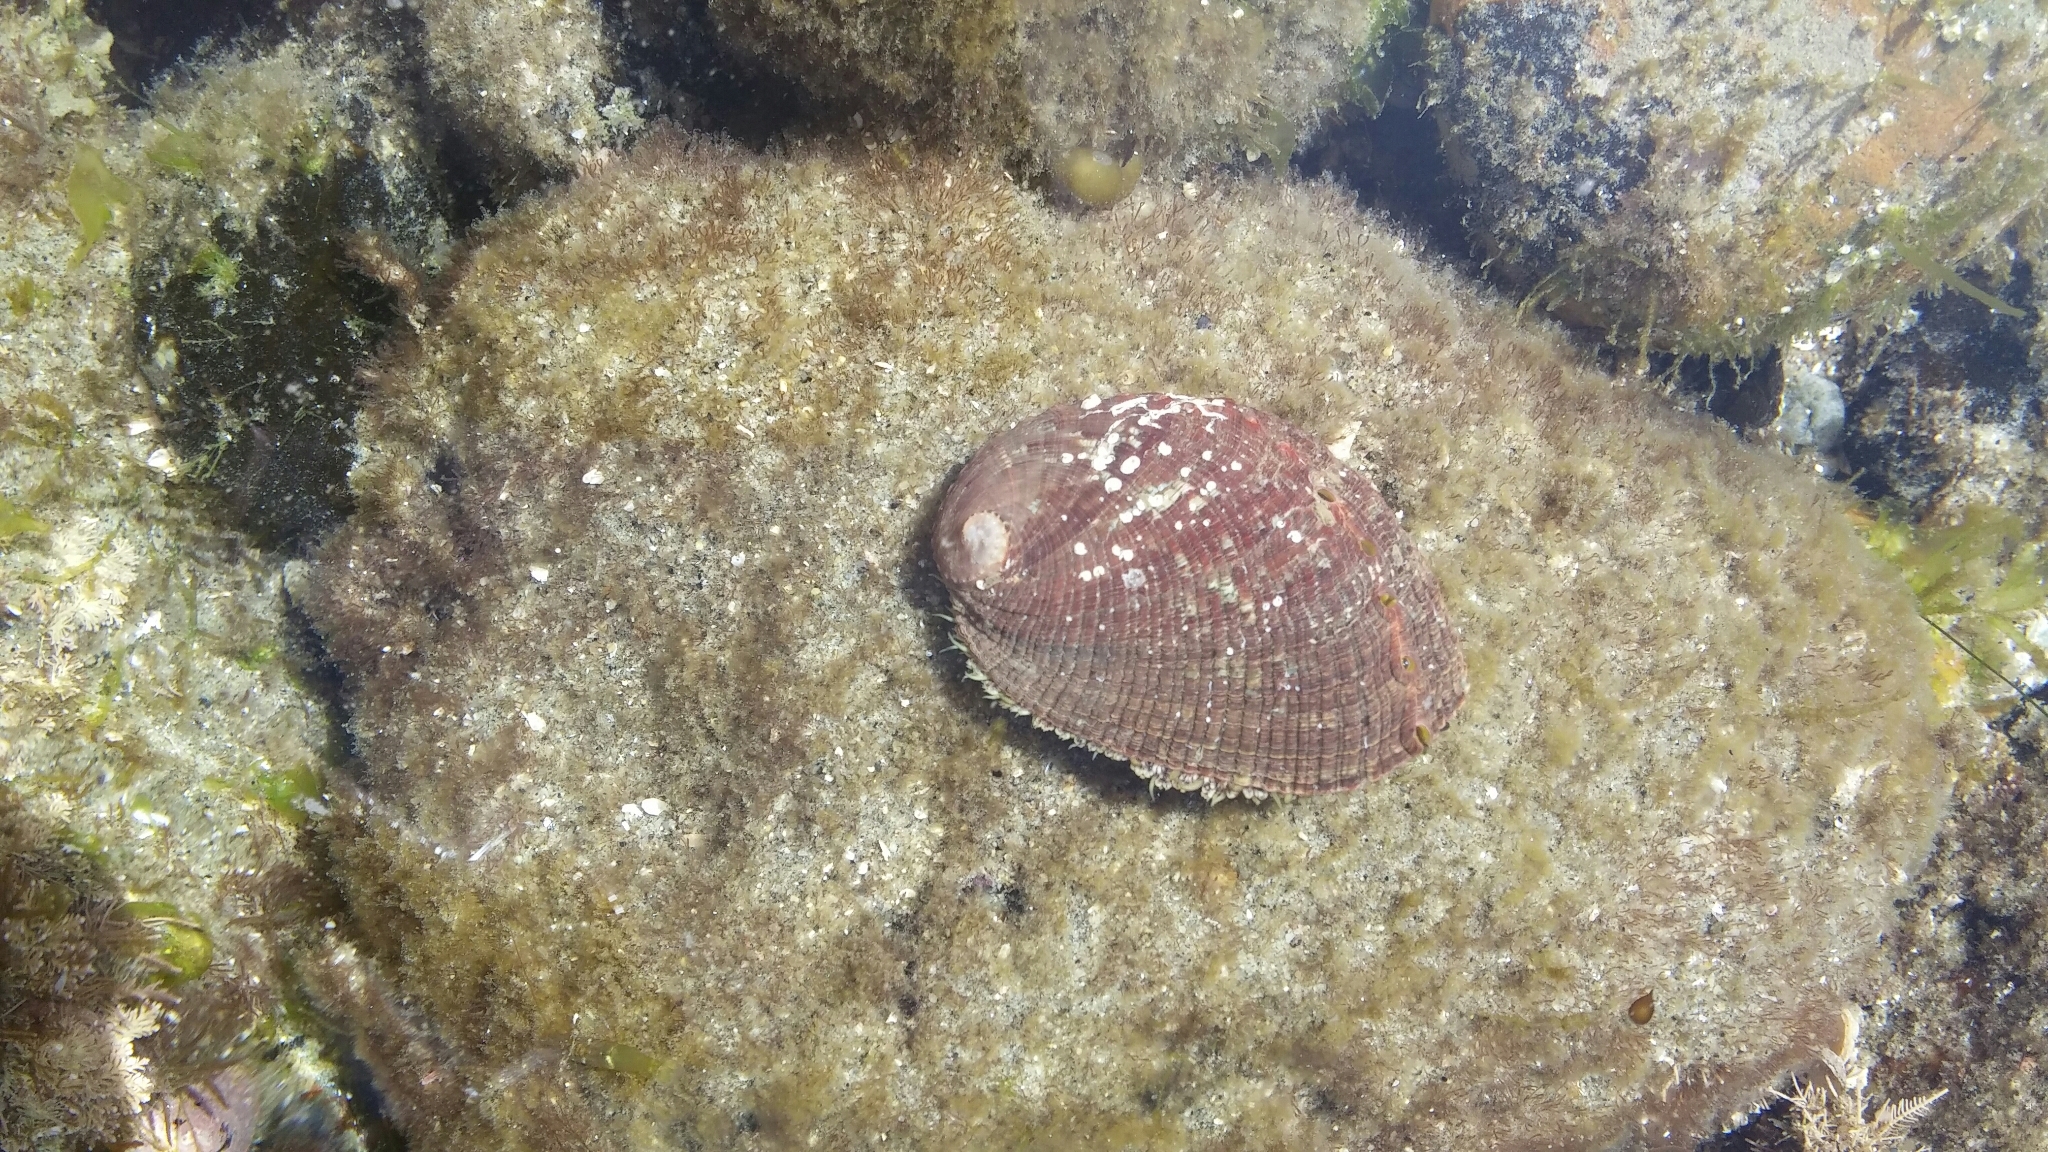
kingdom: Animalia
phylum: Mollusca
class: Gastropoda
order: Lepetellida
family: Haliotidae
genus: Haliotis
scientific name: Haliotis fulgens
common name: Green abalone
